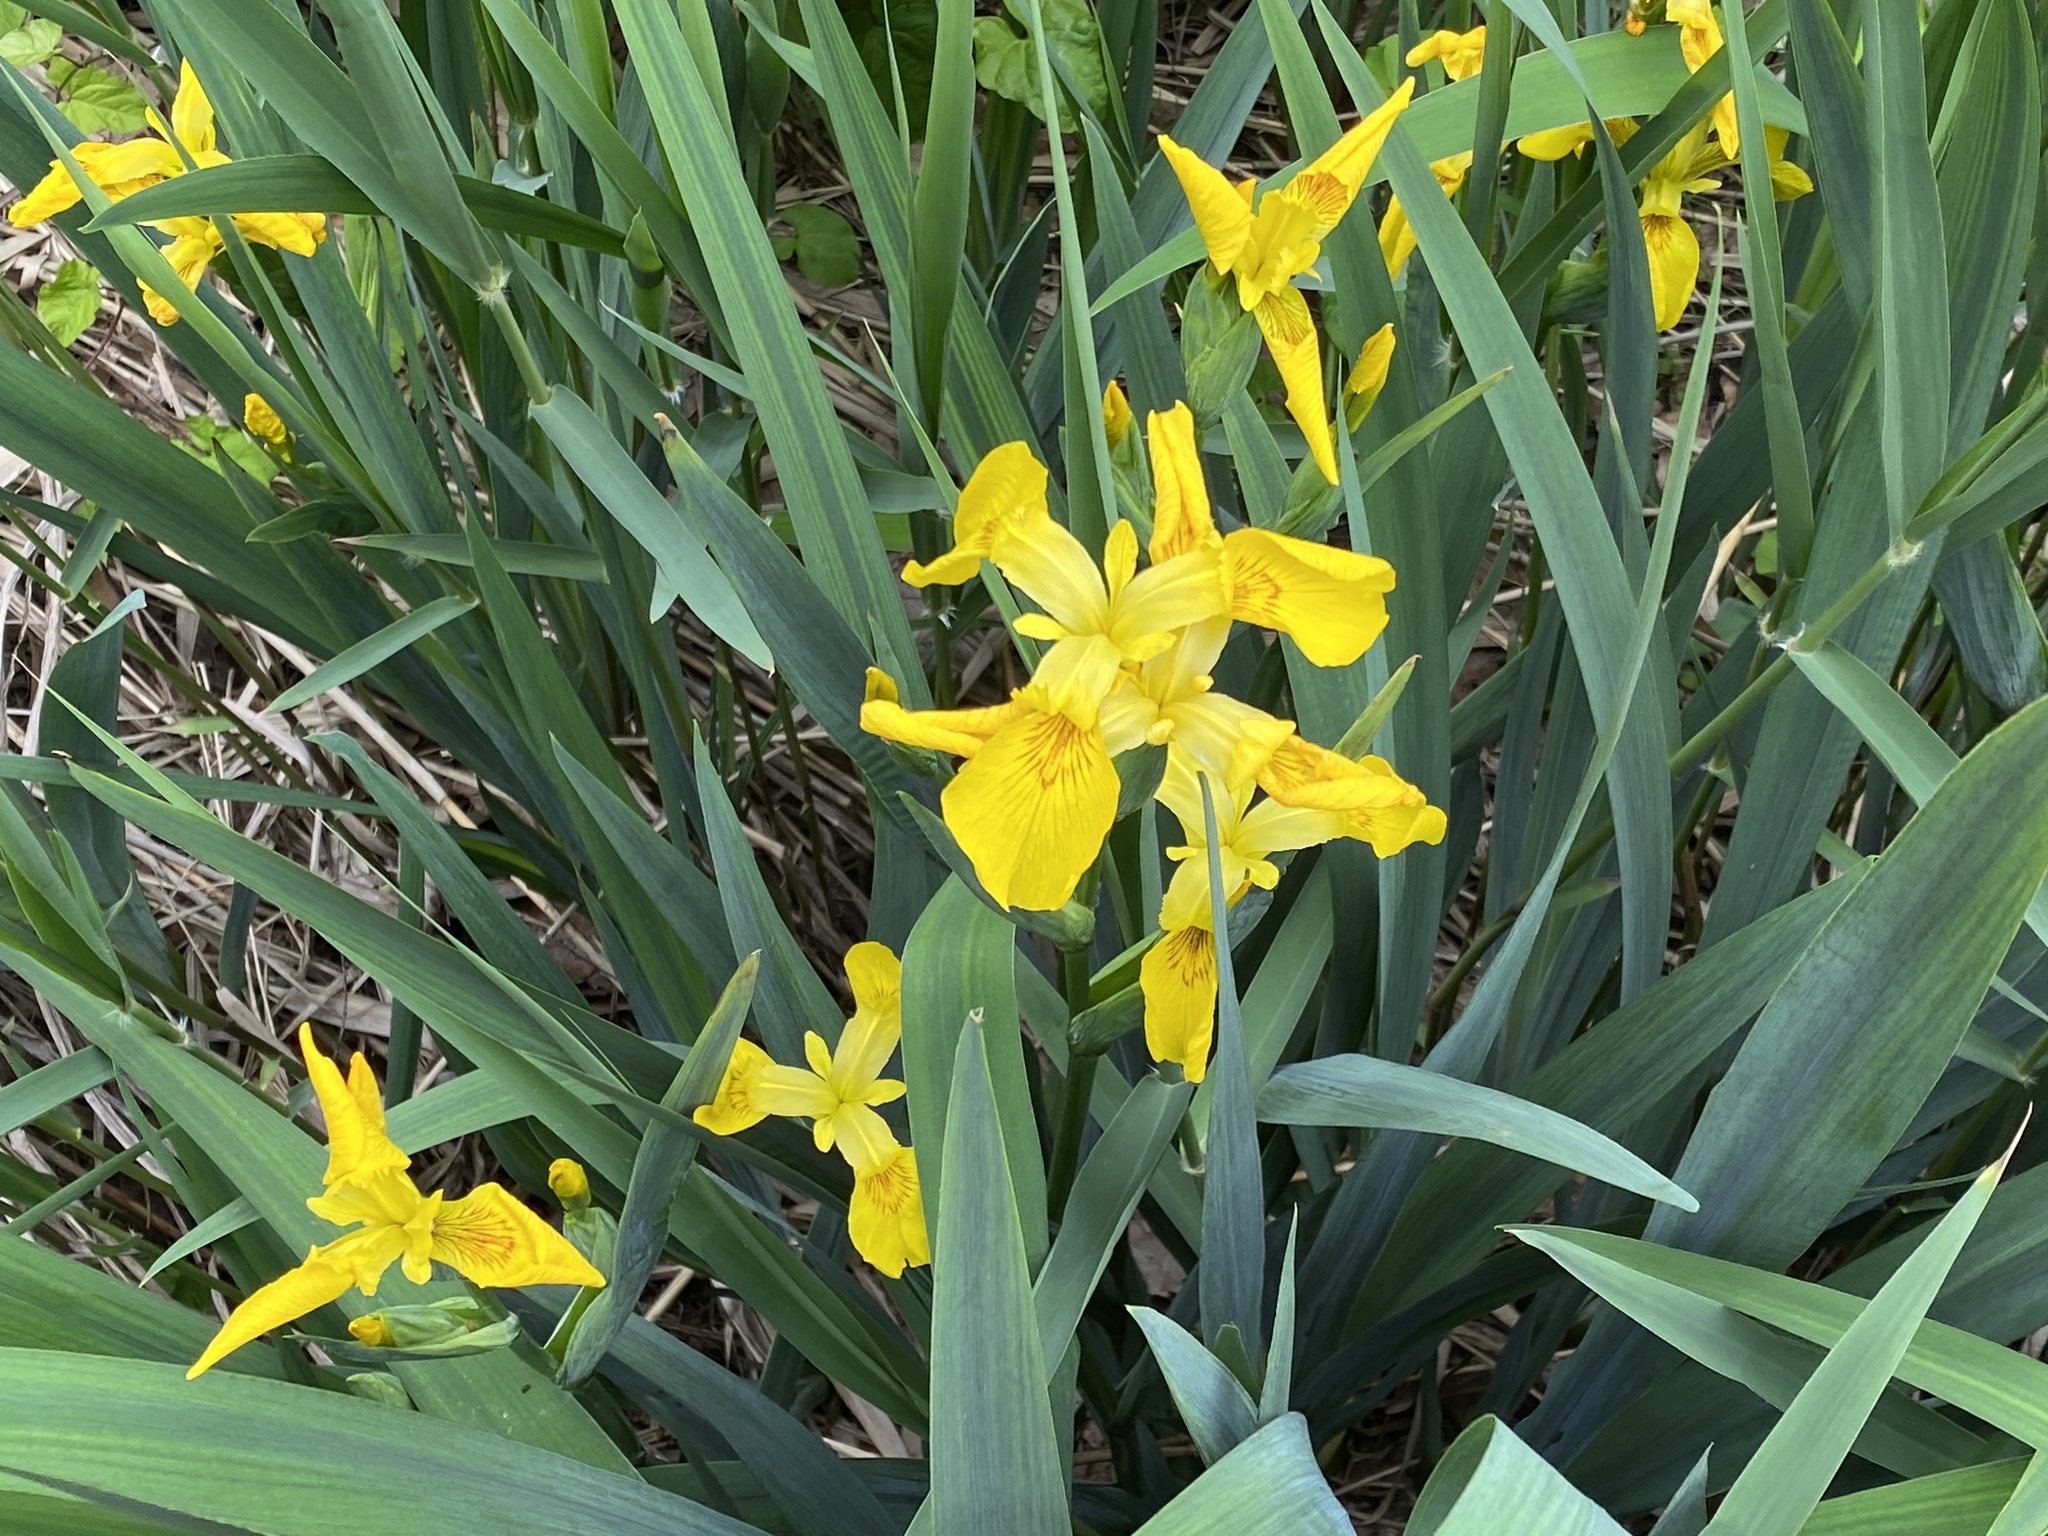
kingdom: Plantae
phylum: Tracheophyta
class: Liliopsida
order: Asparagales
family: Iridaceae
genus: Iris
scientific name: Iris pseudacorus
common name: Yellow flag
